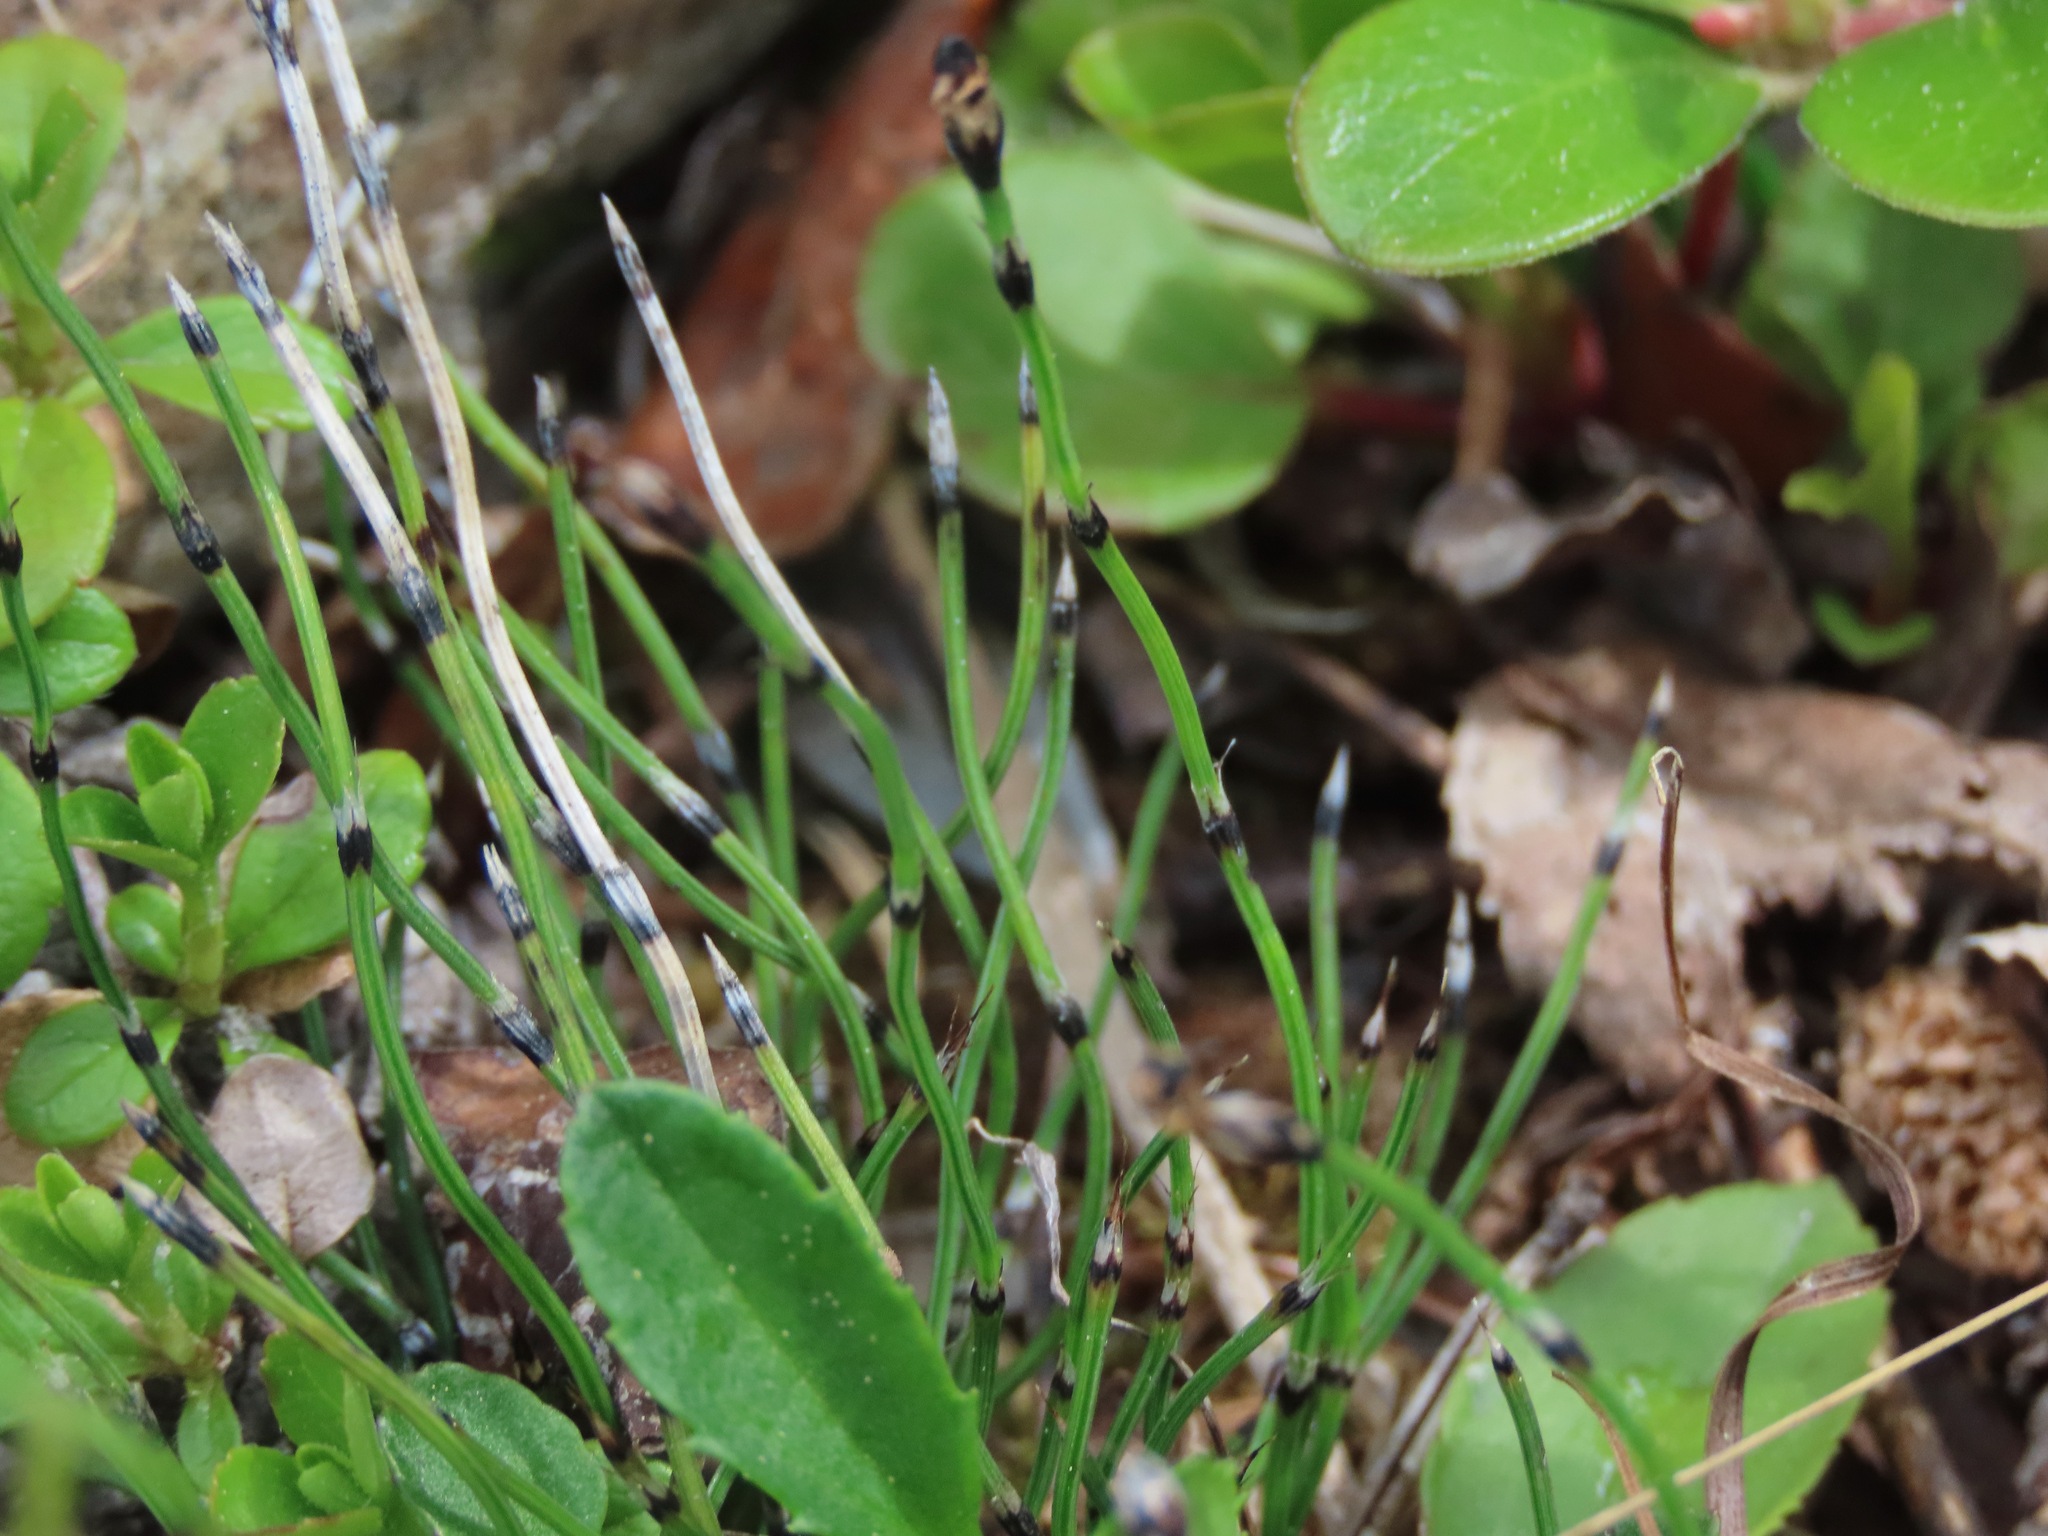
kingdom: Plantae
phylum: Tracheophyta
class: Polypodiopsida
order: Equisetales
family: Equisetaceae
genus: Equisetum
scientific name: Equisetum scirpoides
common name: Delicate horsetail
